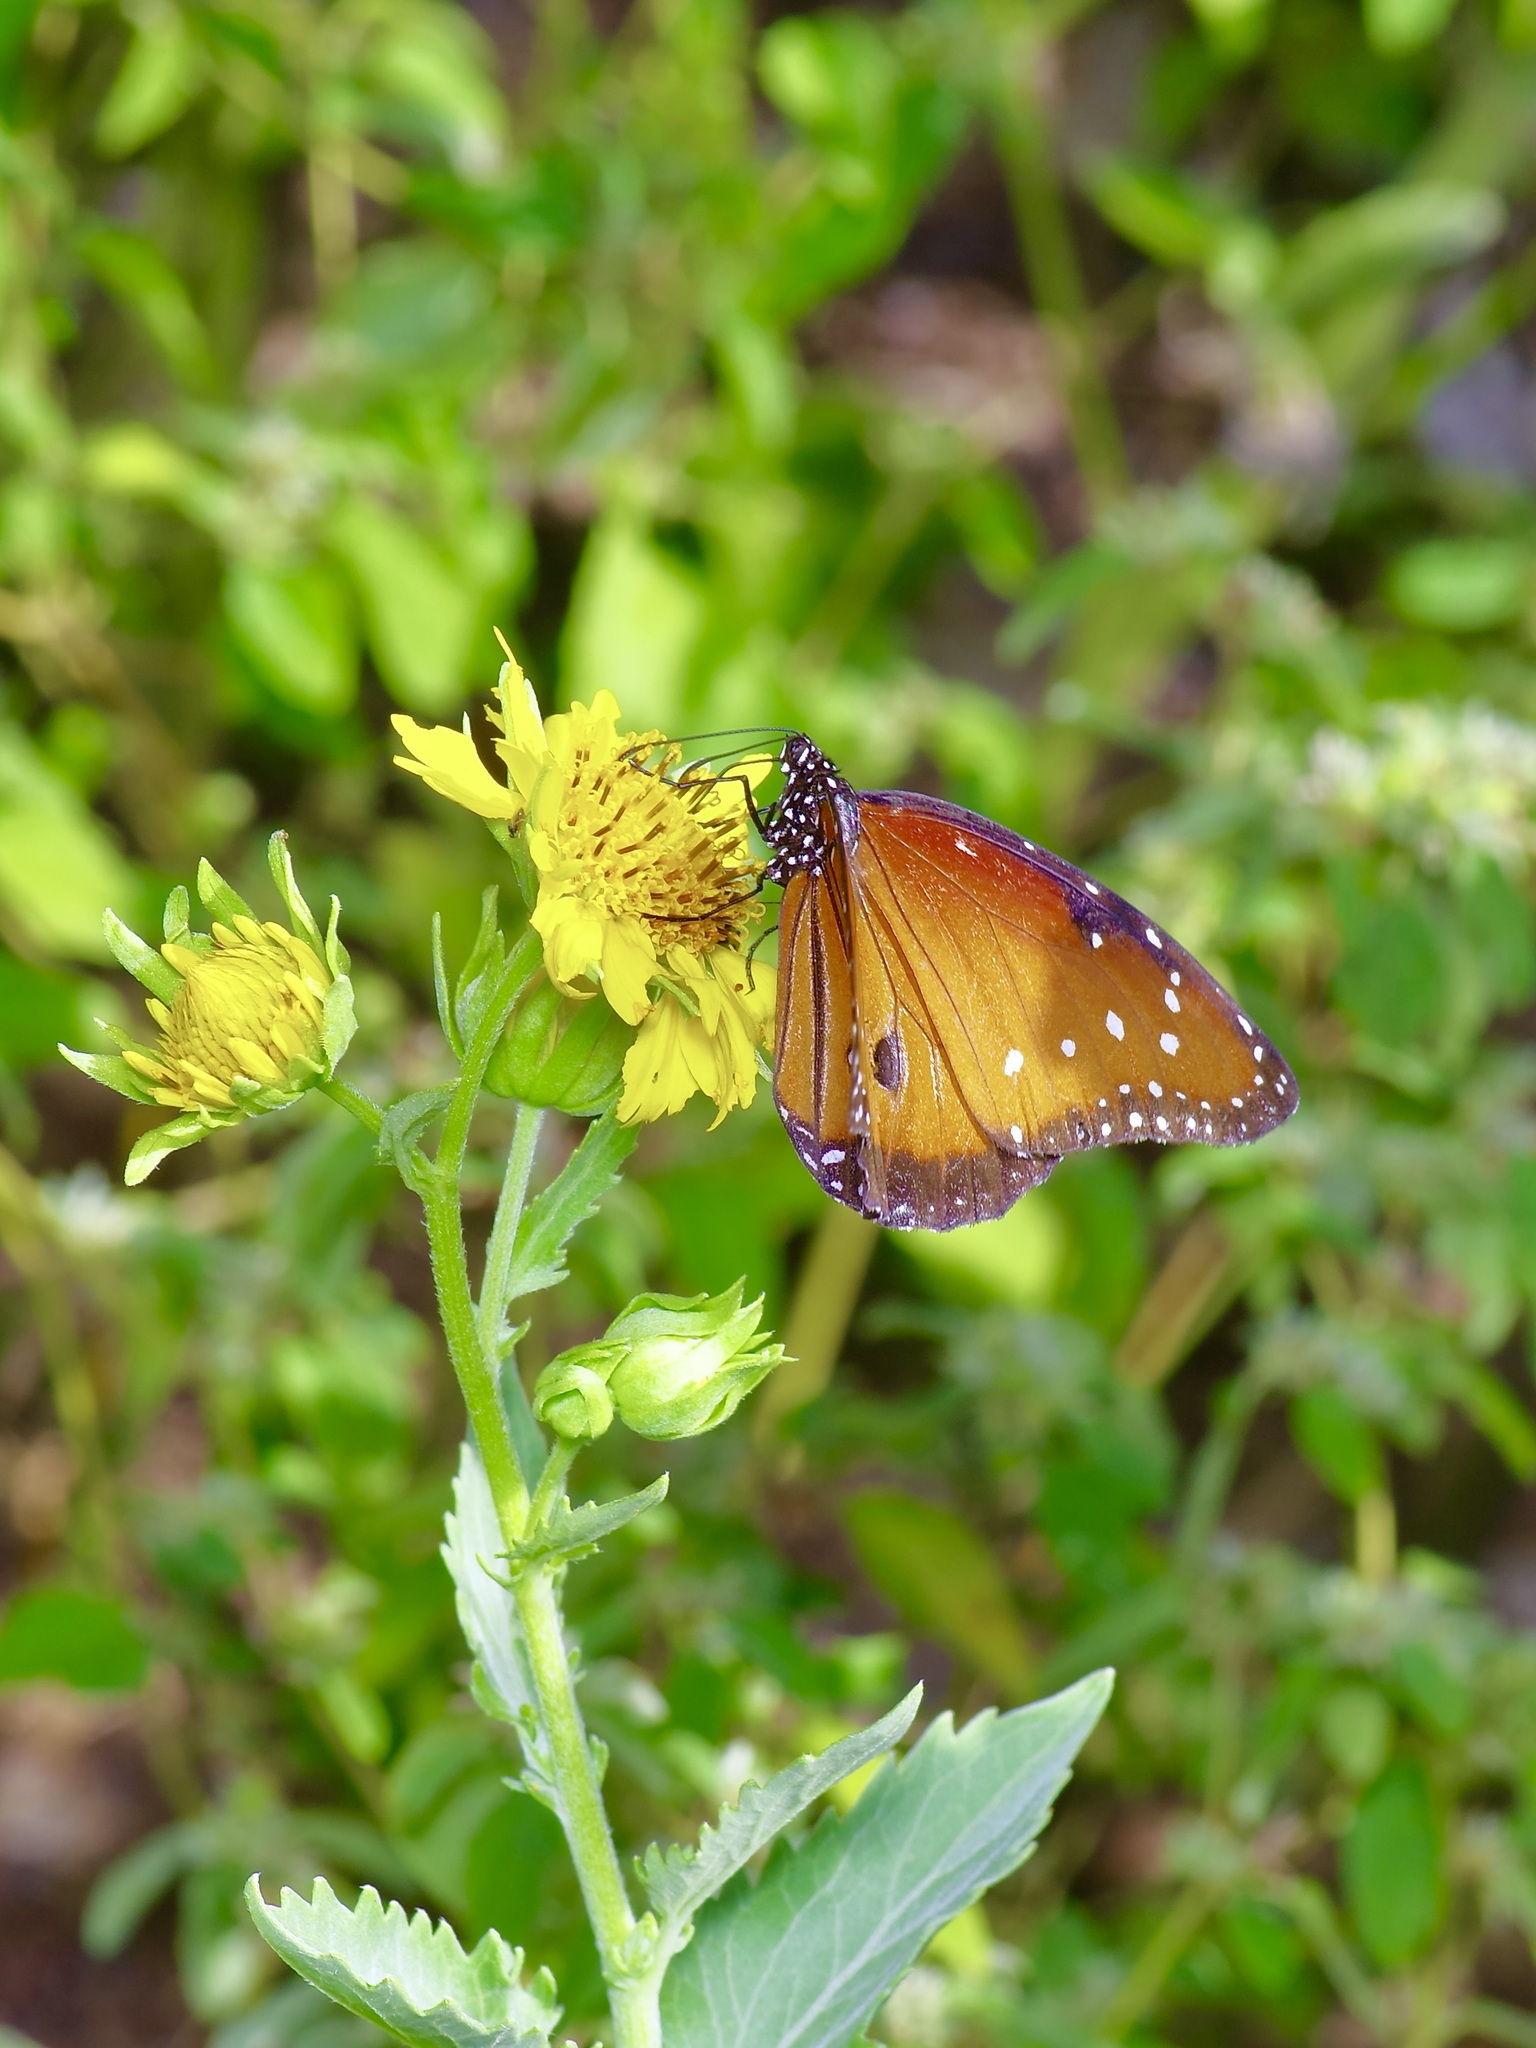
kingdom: Animalia
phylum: Arthropoda
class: Insecta
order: Lepidoptera
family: Nymphalidae
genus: Danaus
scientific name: Danaus gilippus
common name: Queen
